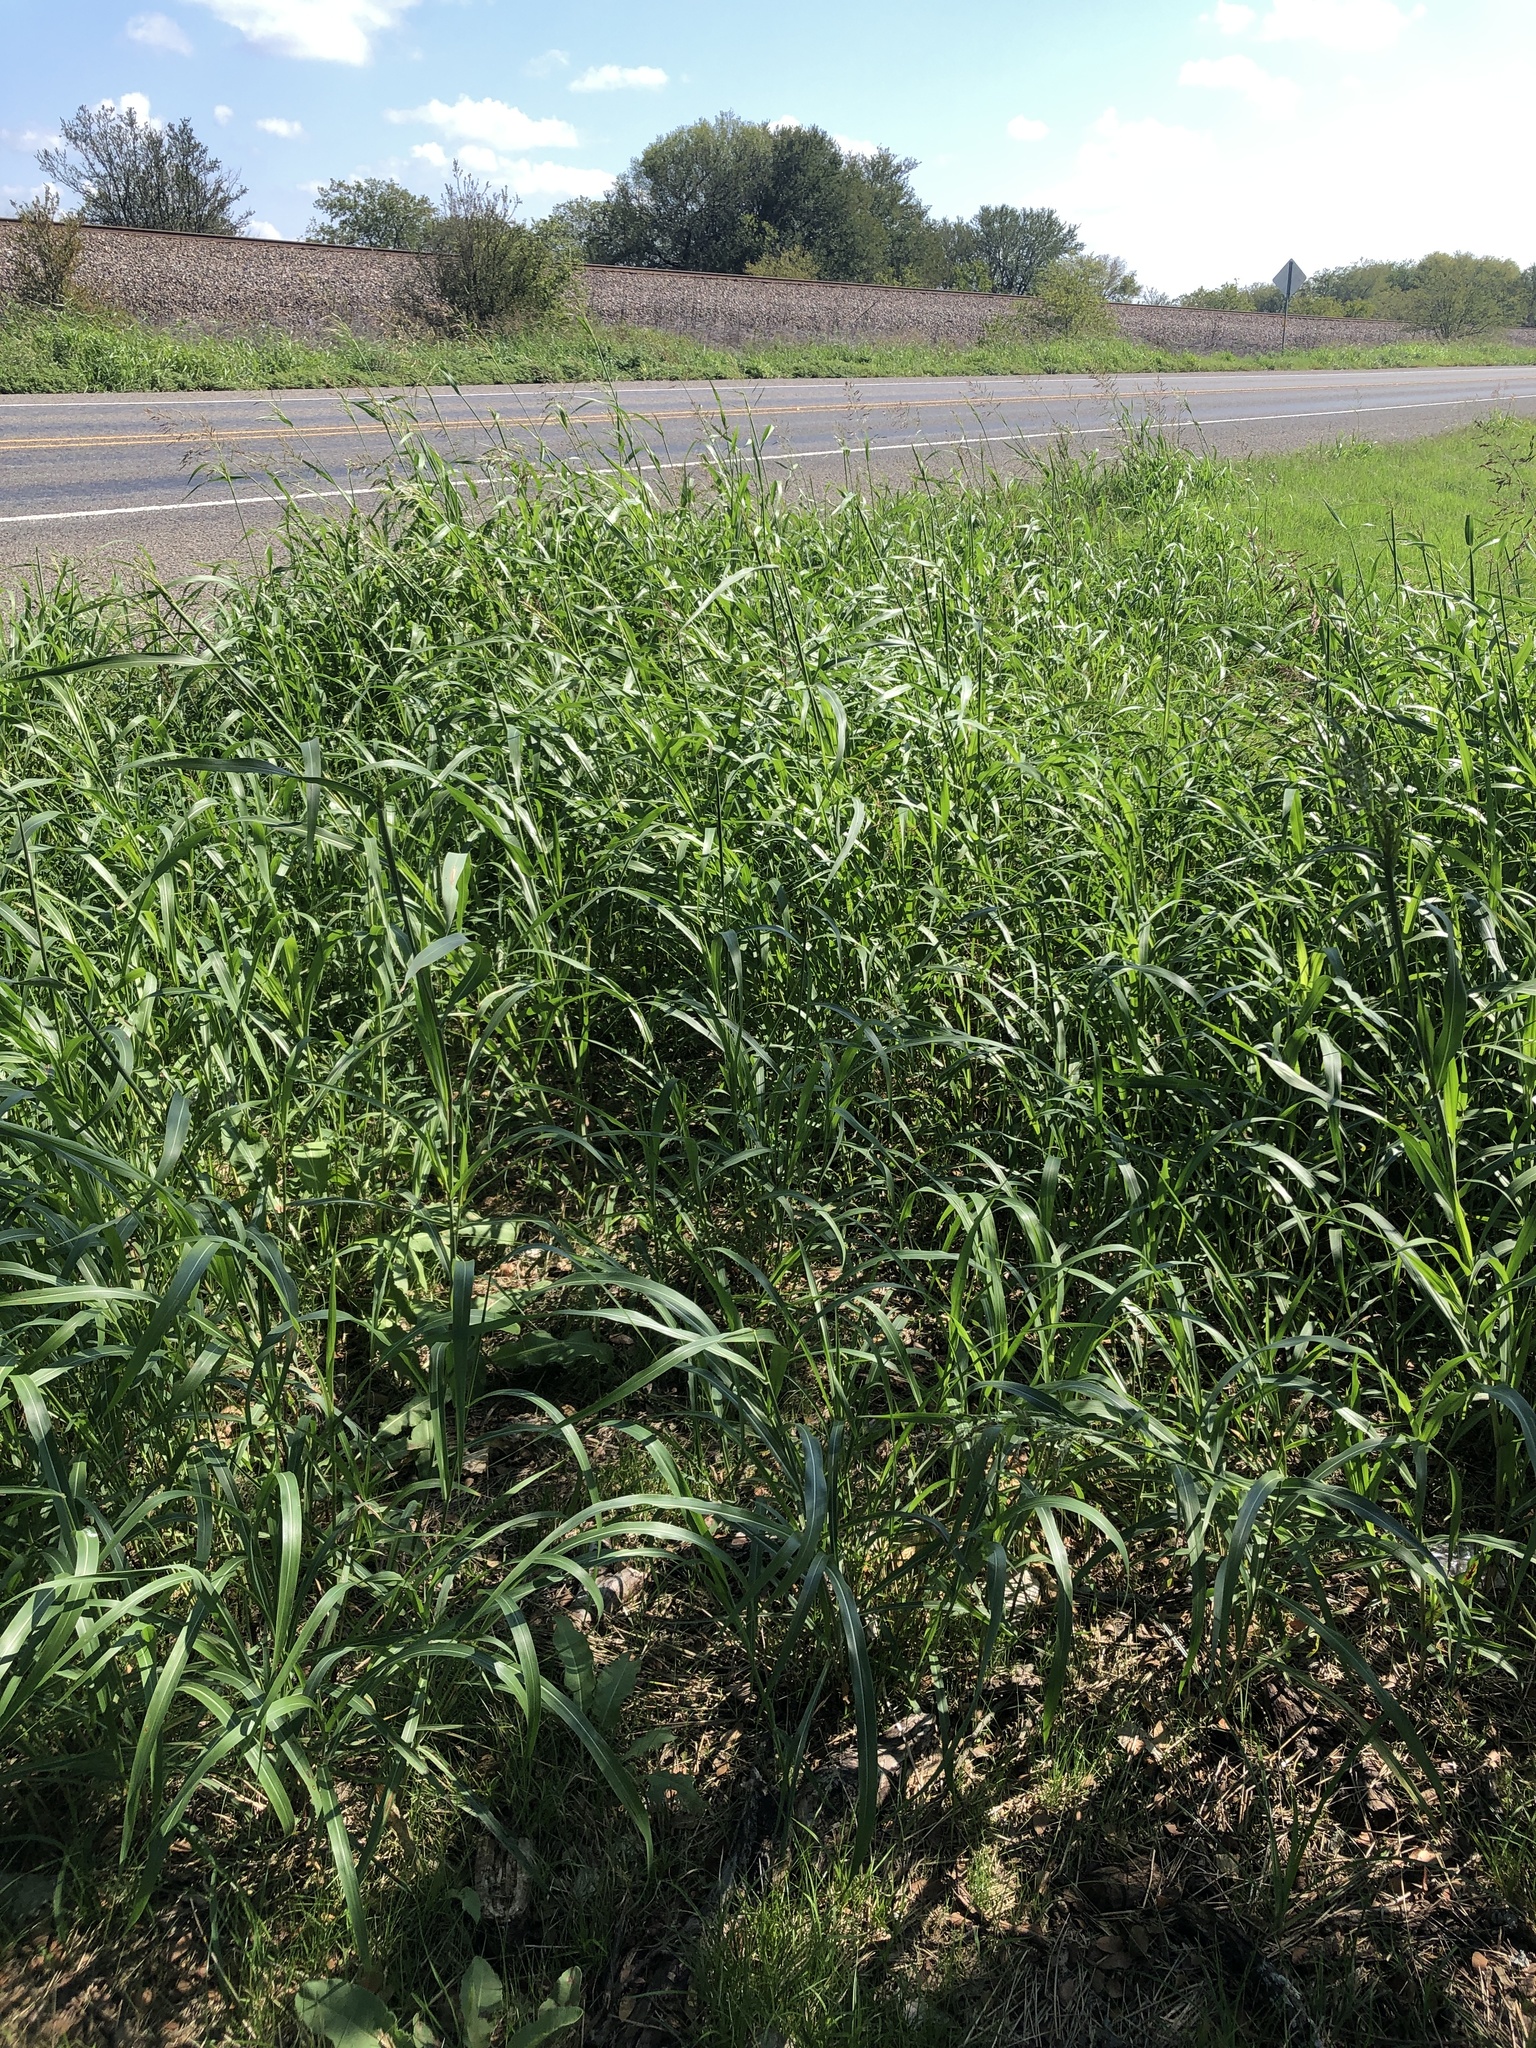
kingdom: Plantae
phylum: Tracheophyta
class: Liliopsida
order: Poales
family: Poaceae
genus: Sorghum
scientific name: Sorghum halepense
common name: Johnson-grass
